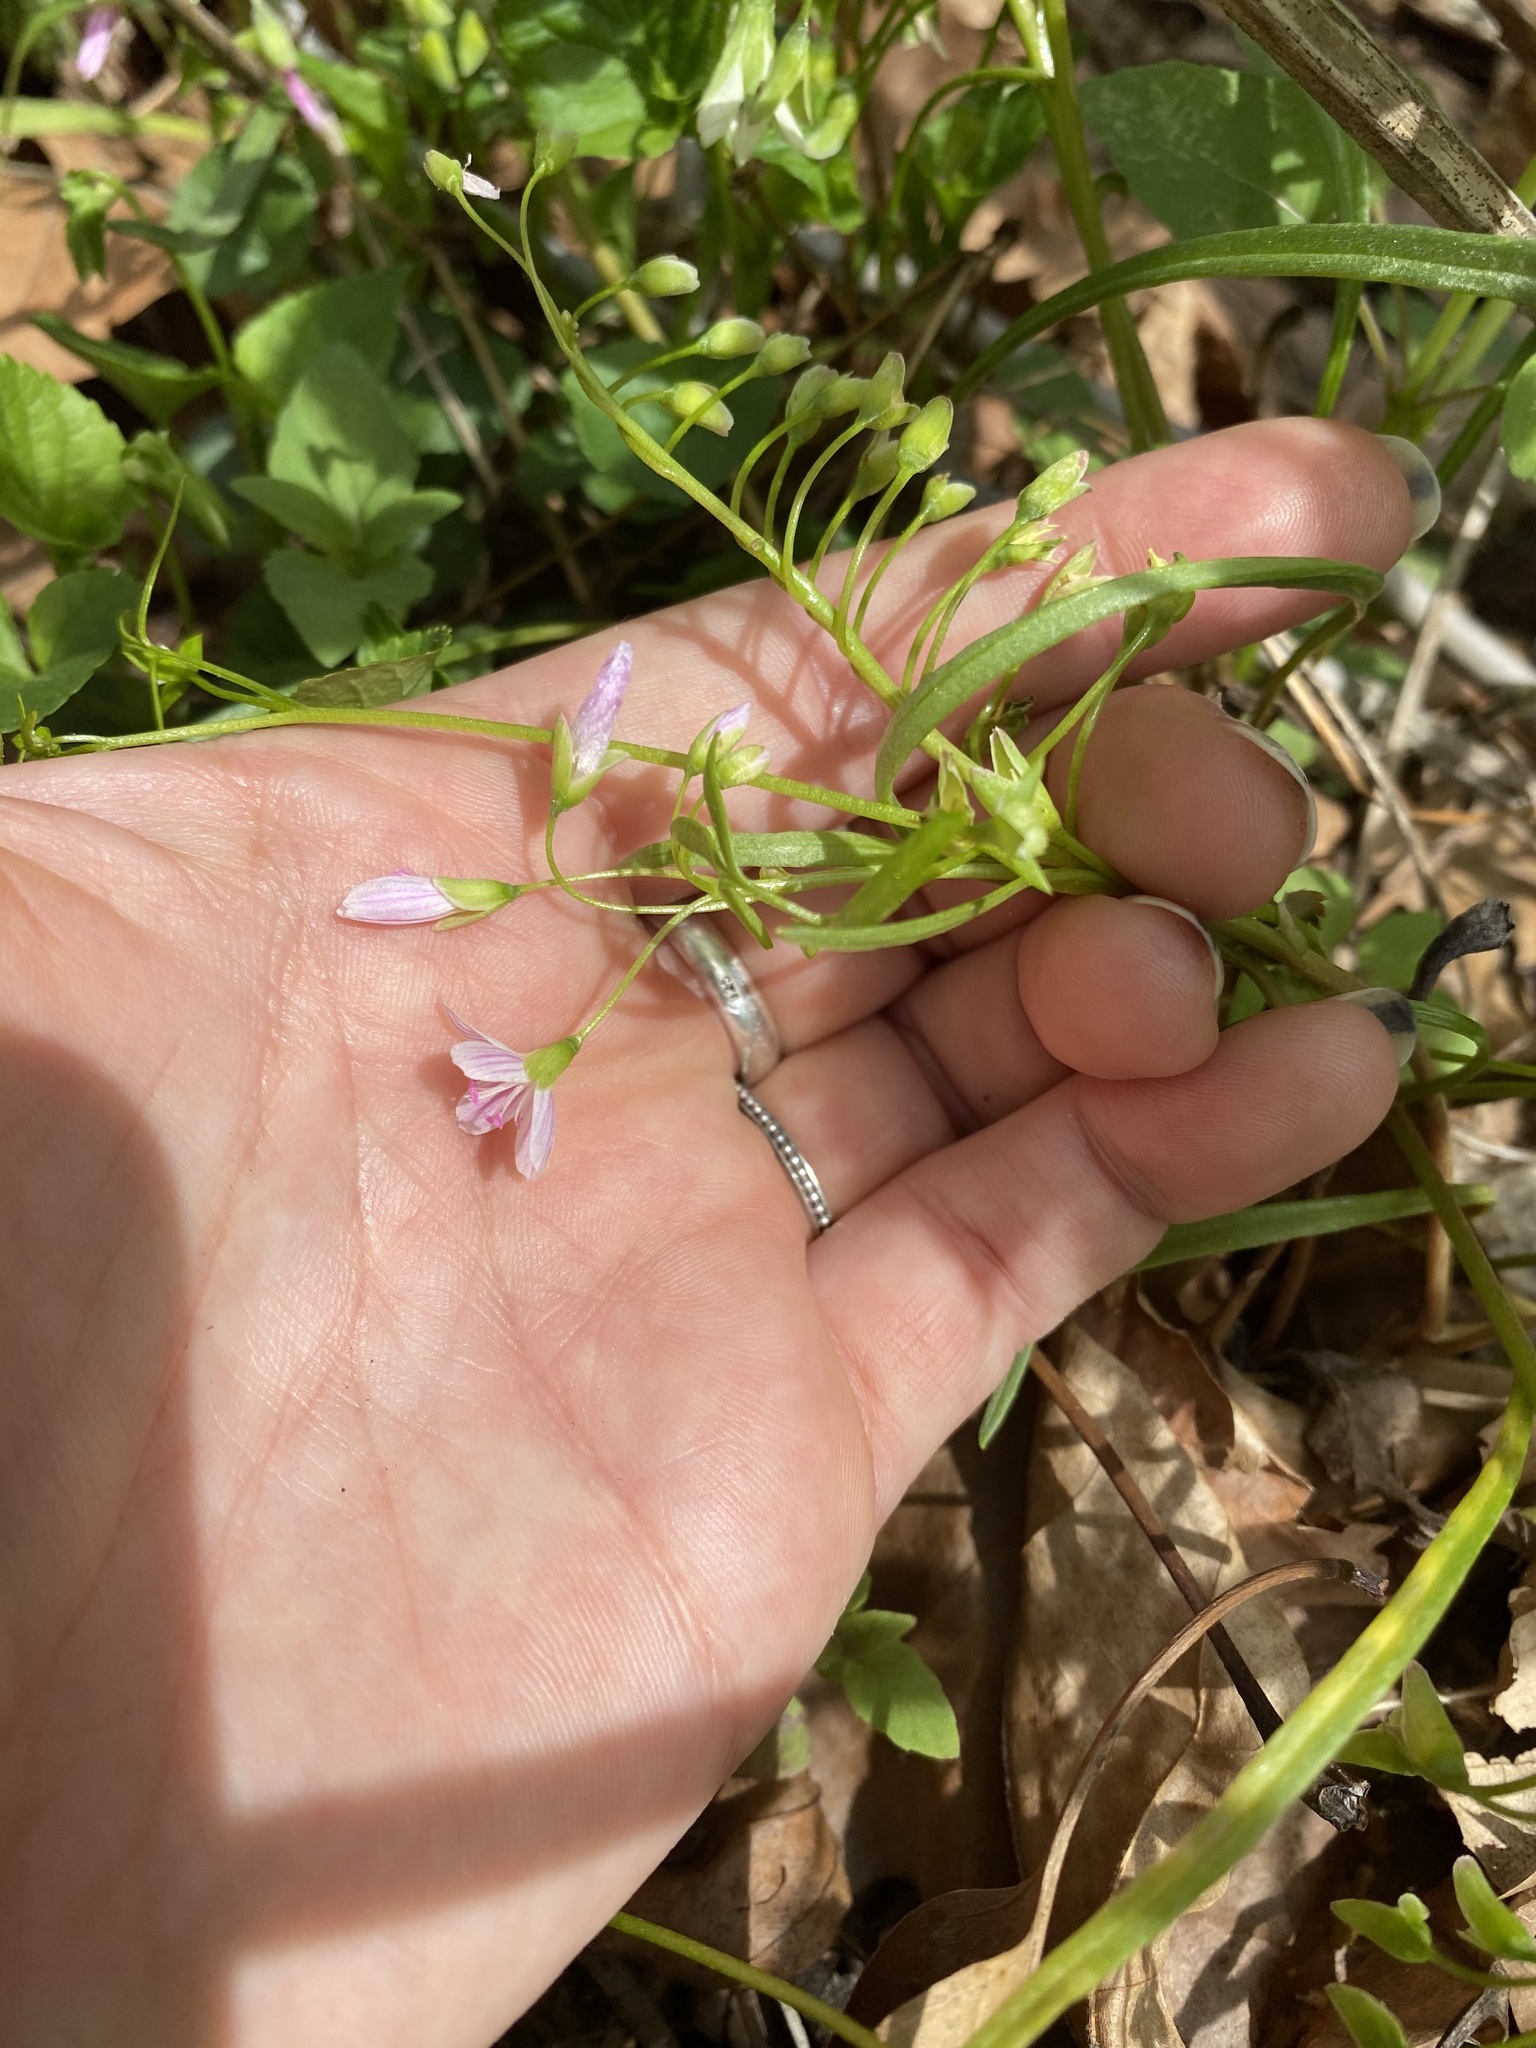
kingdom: Plantae
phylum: Tracheophyta
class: Magnoliopsida
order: Caryophyllales
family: Montiaceae
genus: Claytonia
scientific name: Claytonia virginica
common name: Virginia springbeauty
